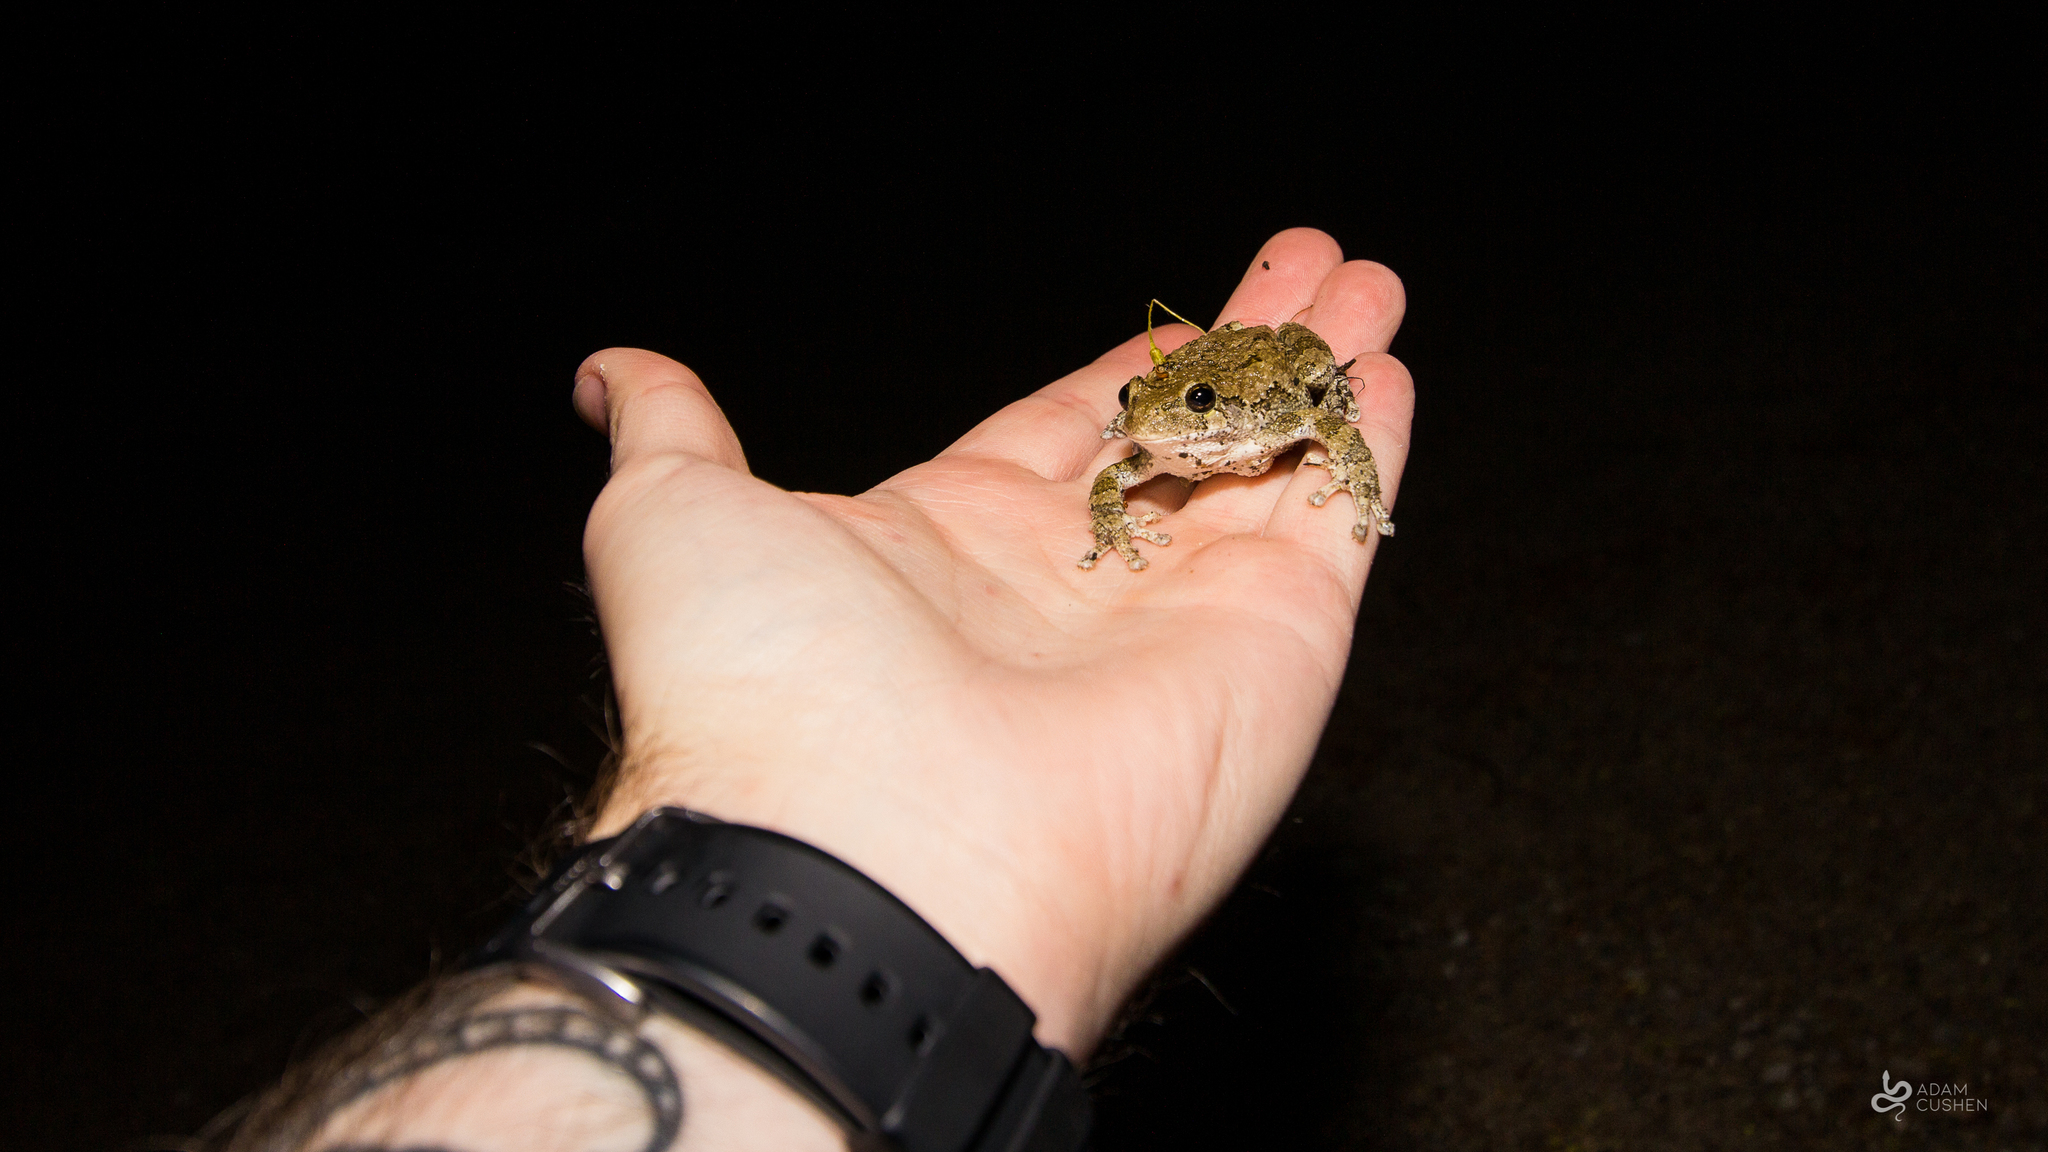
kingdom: Animalia
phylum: Chordata
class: Amphibia
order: Anura
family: Hylidae
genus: Dryophytes
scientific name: Dryophytes versicolor
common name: Gray treefrog
